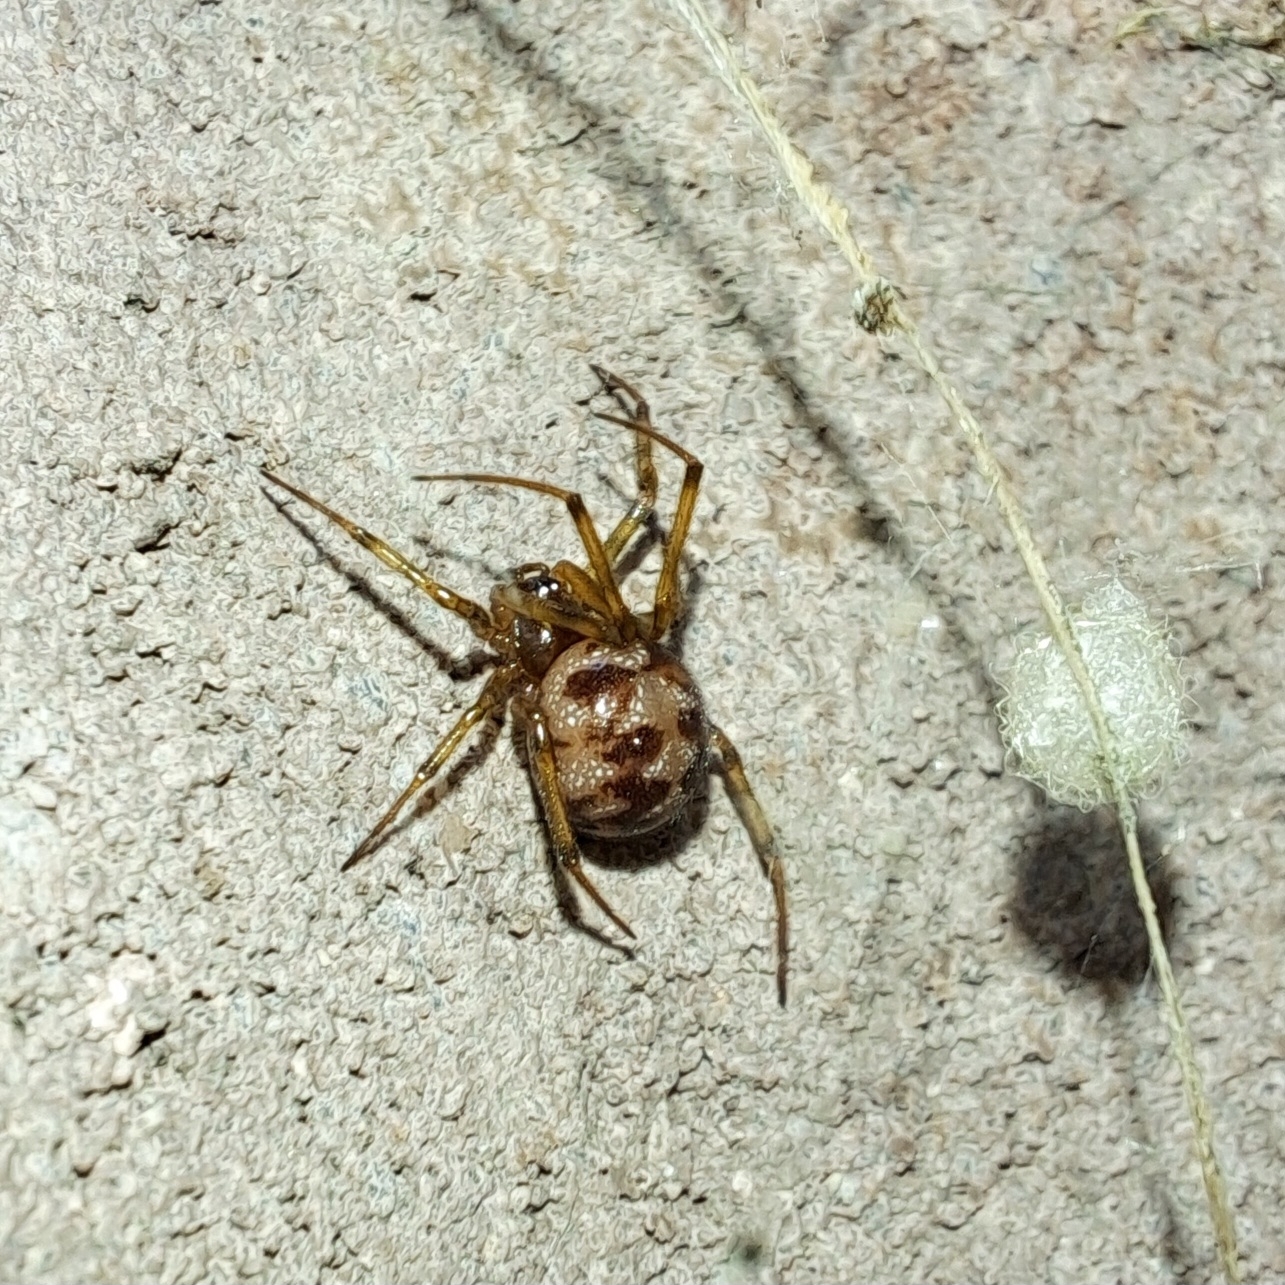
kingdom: Animalia
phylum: Arthropoda
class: Arachnida
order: Araneae
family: Theridiidae
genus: Steatoda
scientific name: Steatoda triangulosa
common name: Triangulate bud spider
